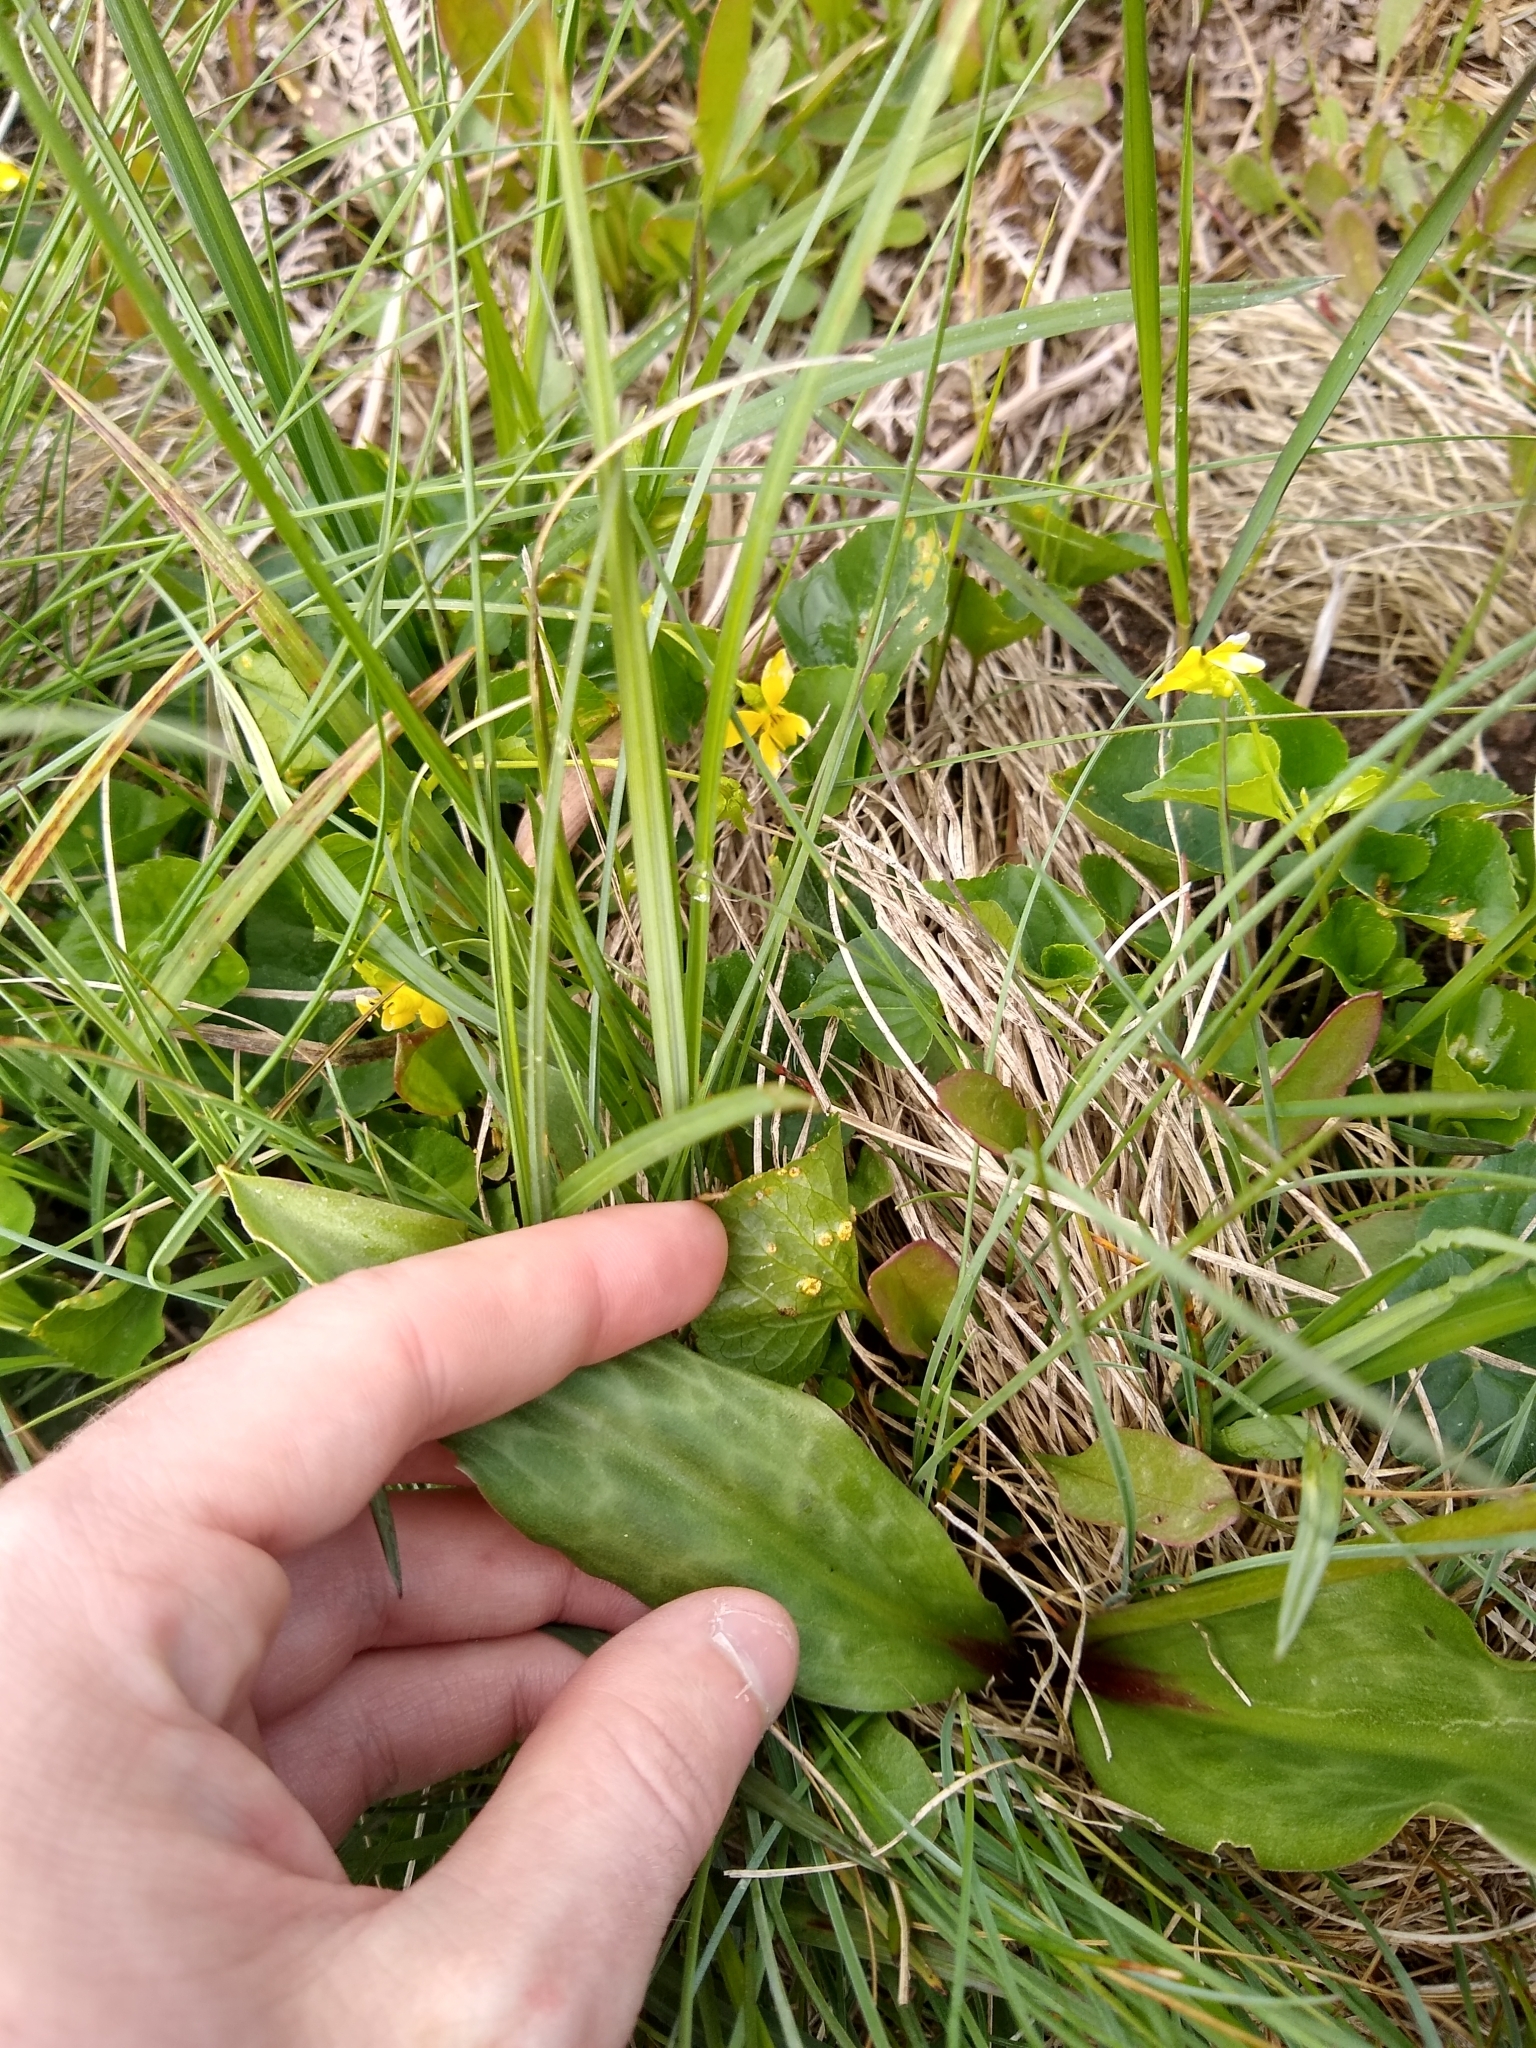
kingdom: Plantae
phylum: Tracheophyta
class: Liliopsida
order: Liliales
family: Liliaceae
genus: Erythronium
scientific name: Erythronium oregonum
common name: Giant adder's-tongue
